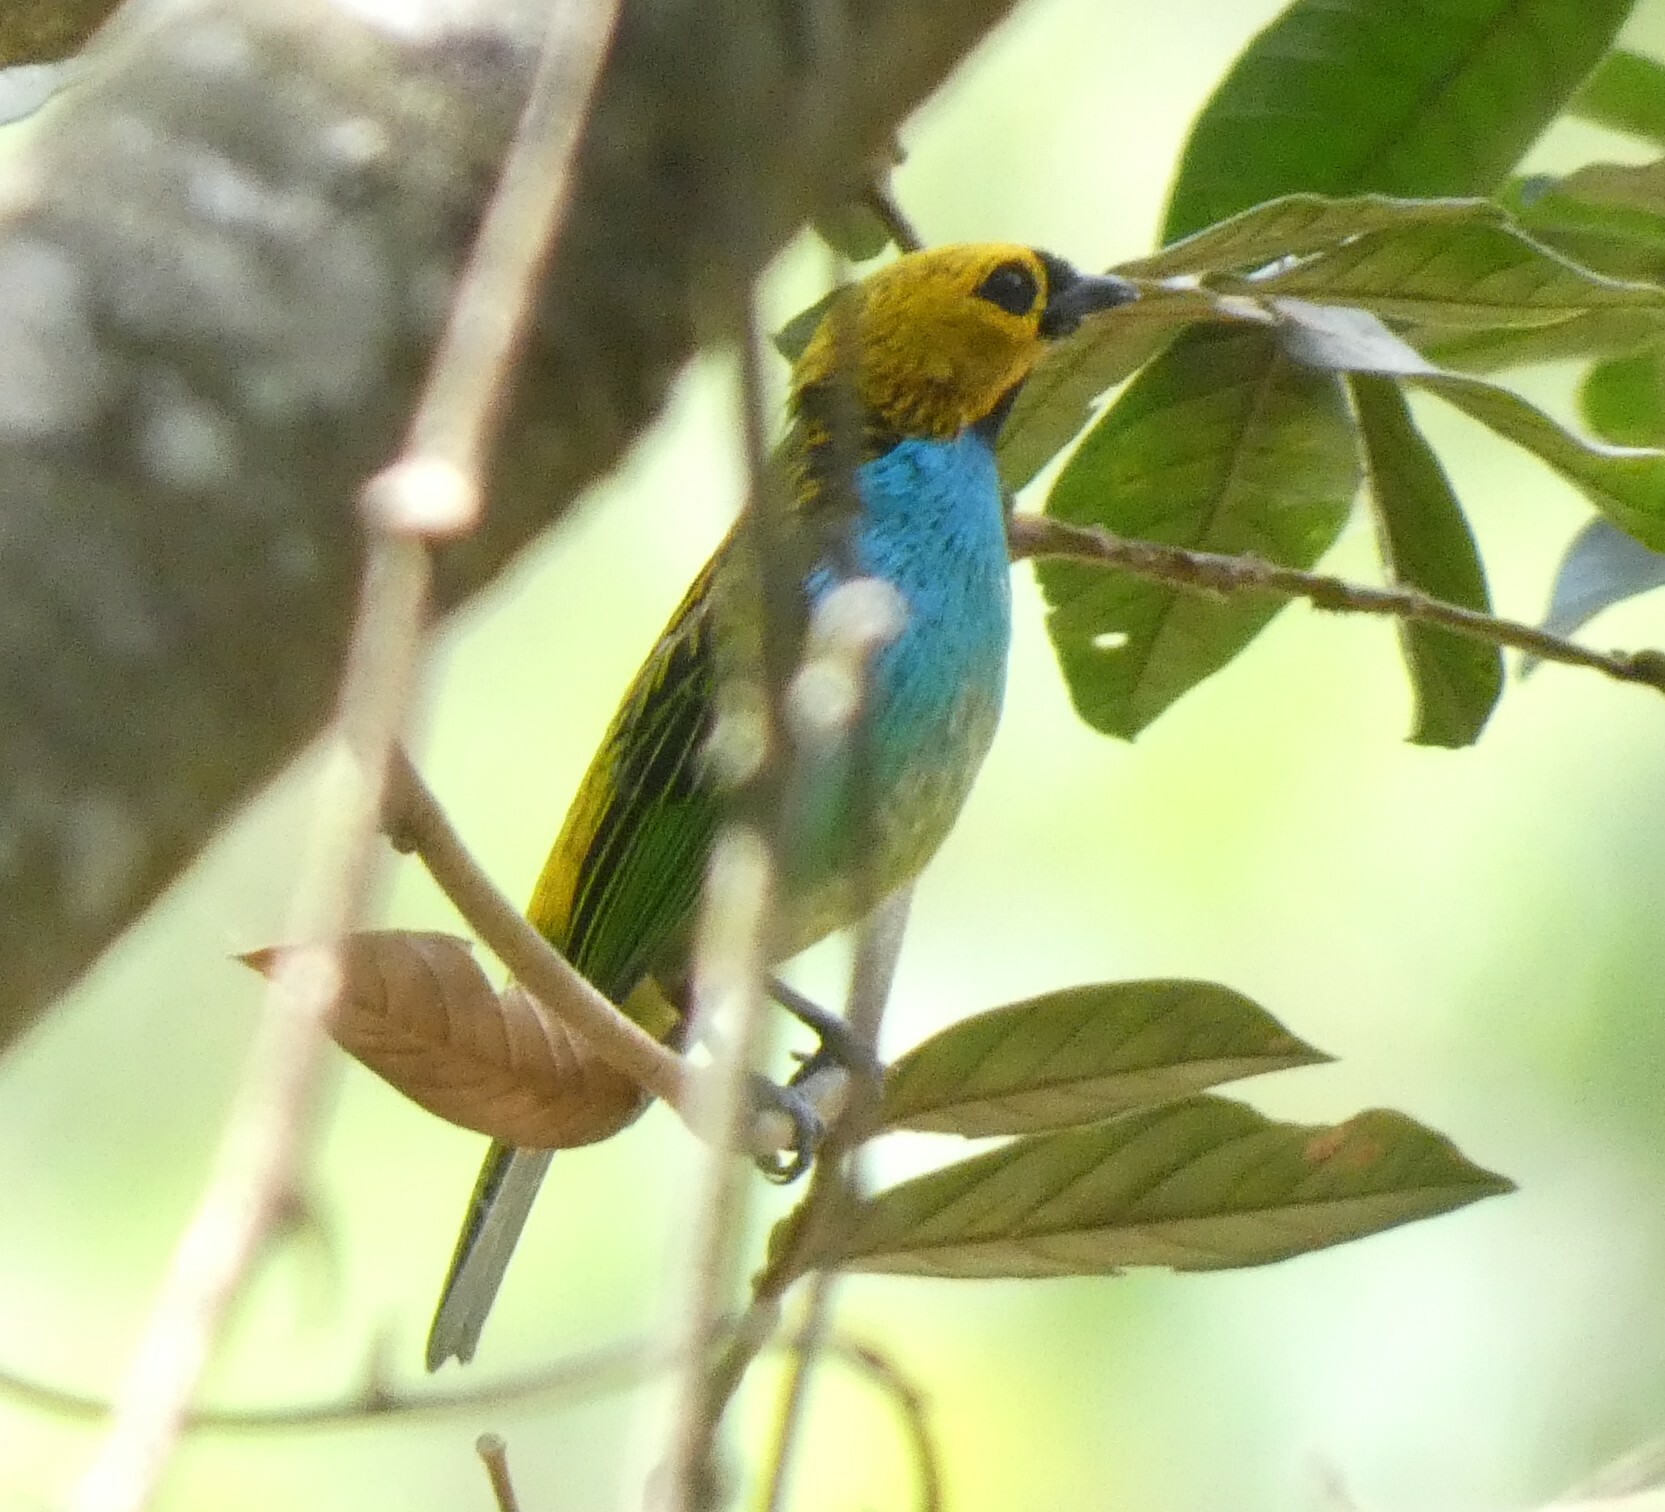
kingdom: Animalia
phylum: Chordata
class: Aves
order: Passeriformes
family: Thraupidae
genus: Tangara
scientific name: Tangara cyanoventris
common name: Gilt-edged tanager
